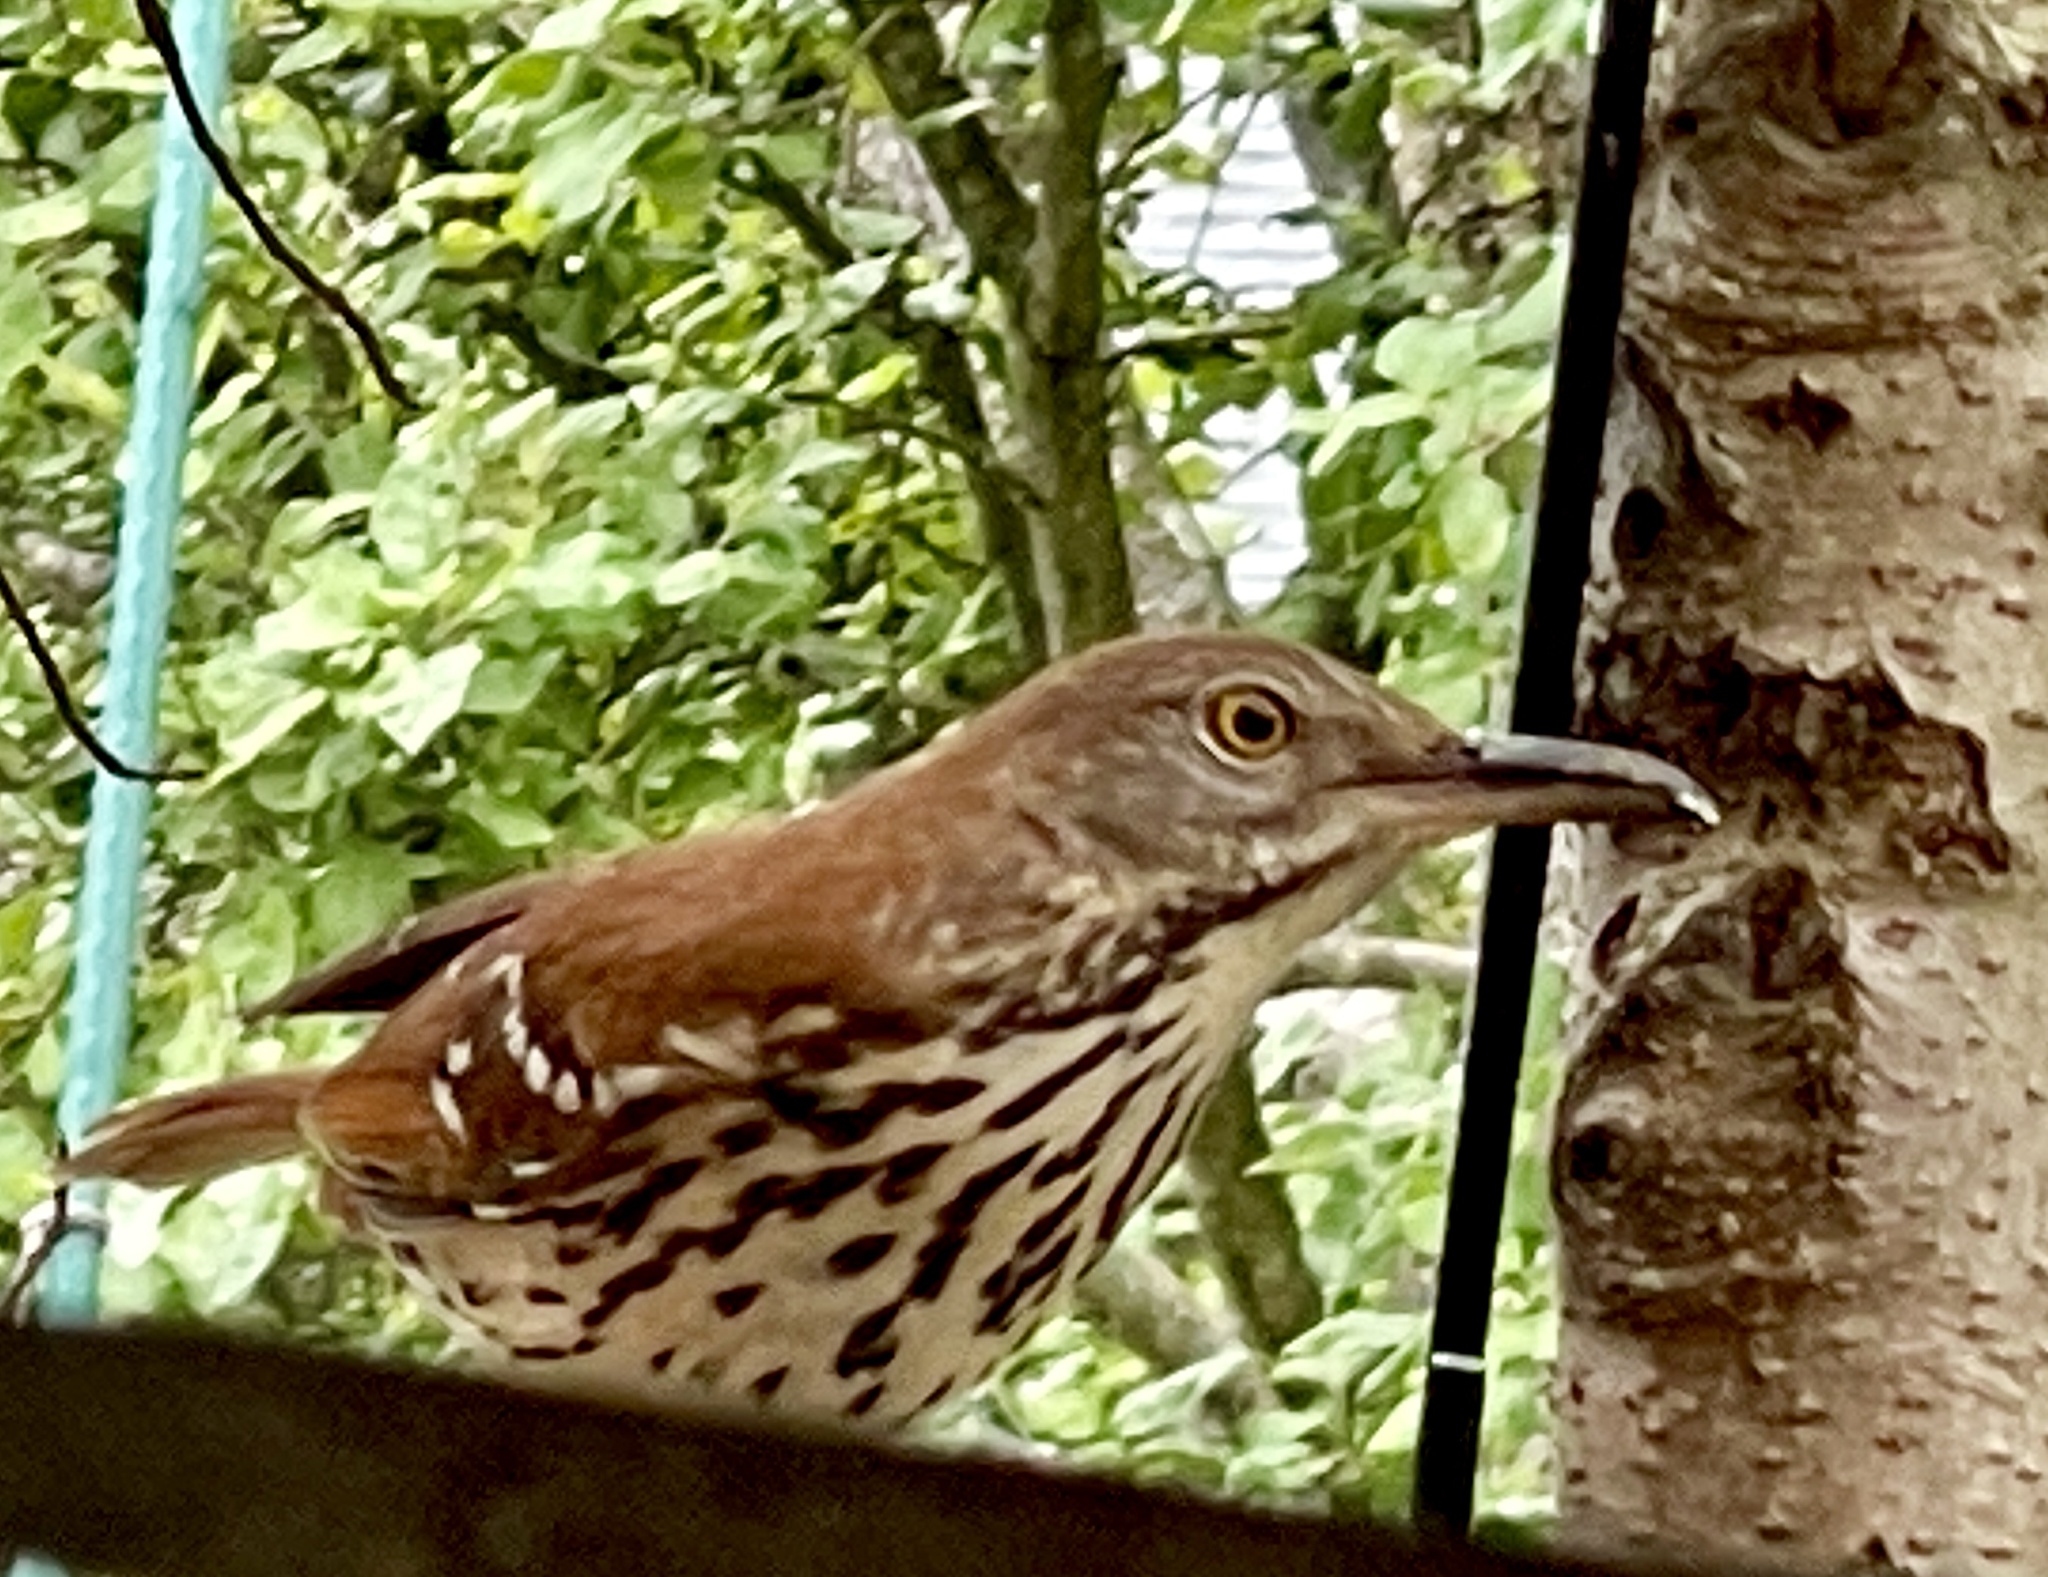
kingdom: Animalia
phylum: Chordata
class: Aves
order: Passeriformes
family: Mimidae
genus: Toxostoma
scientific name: Toxostoma rufum
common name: Brown thrasher
